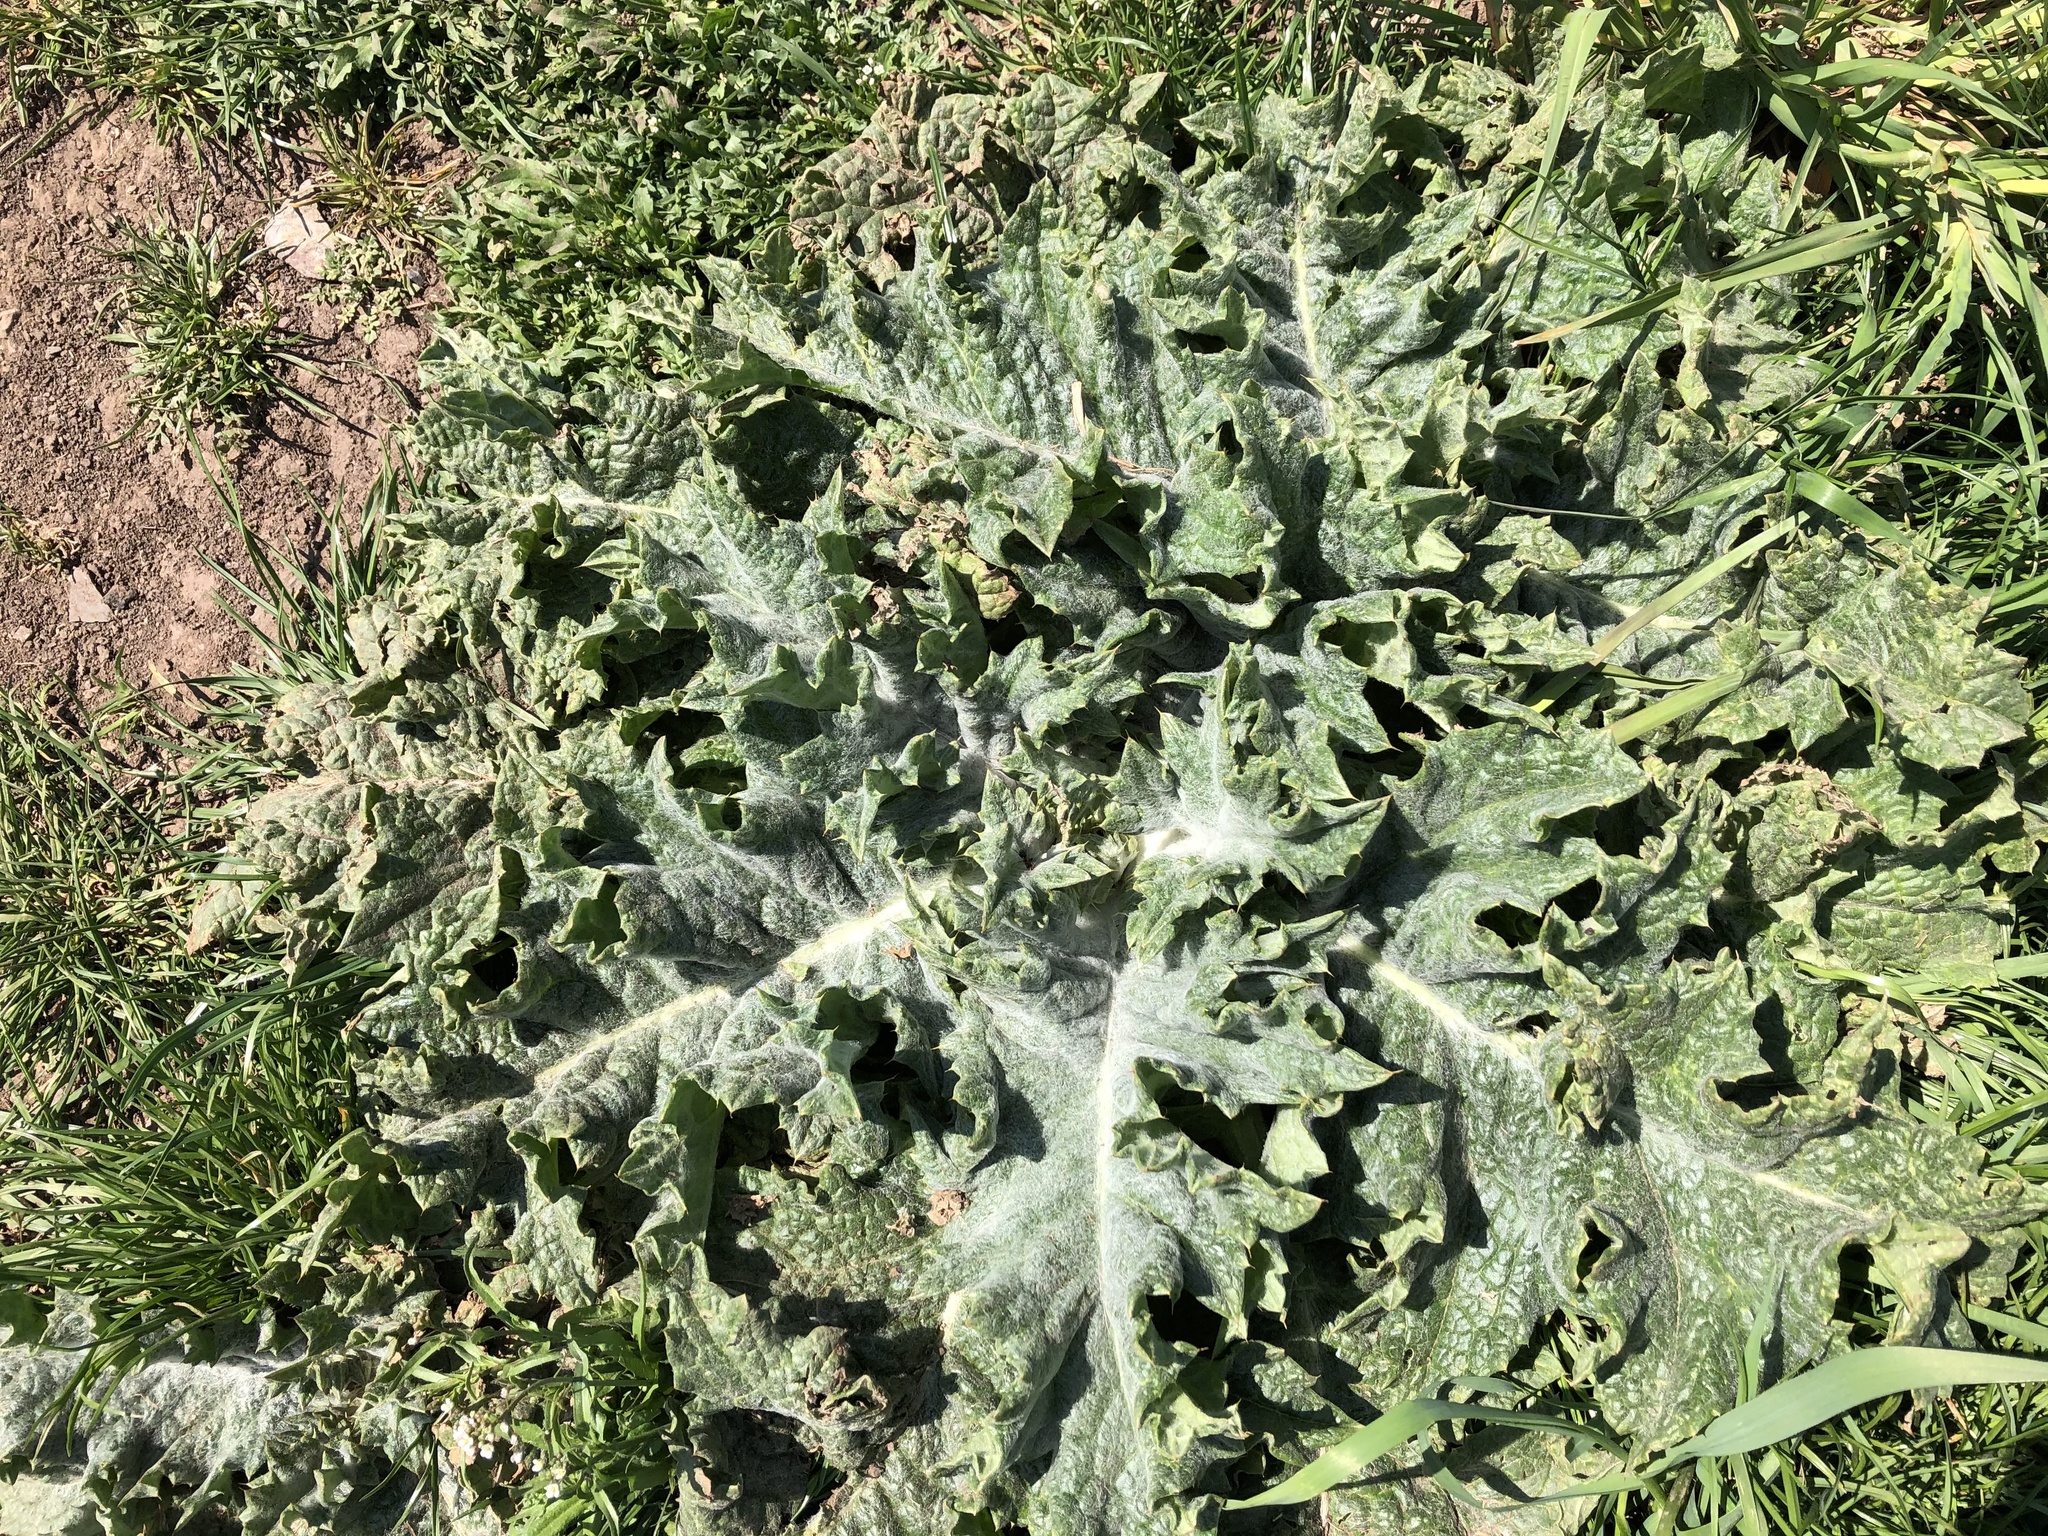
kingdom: Plantae
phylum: Tracheophyta
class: Magnoliopsida
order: Asterales
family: Asteraceae
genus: Onopordum
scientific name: Onopordum acanthium
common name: Scotch thistle
